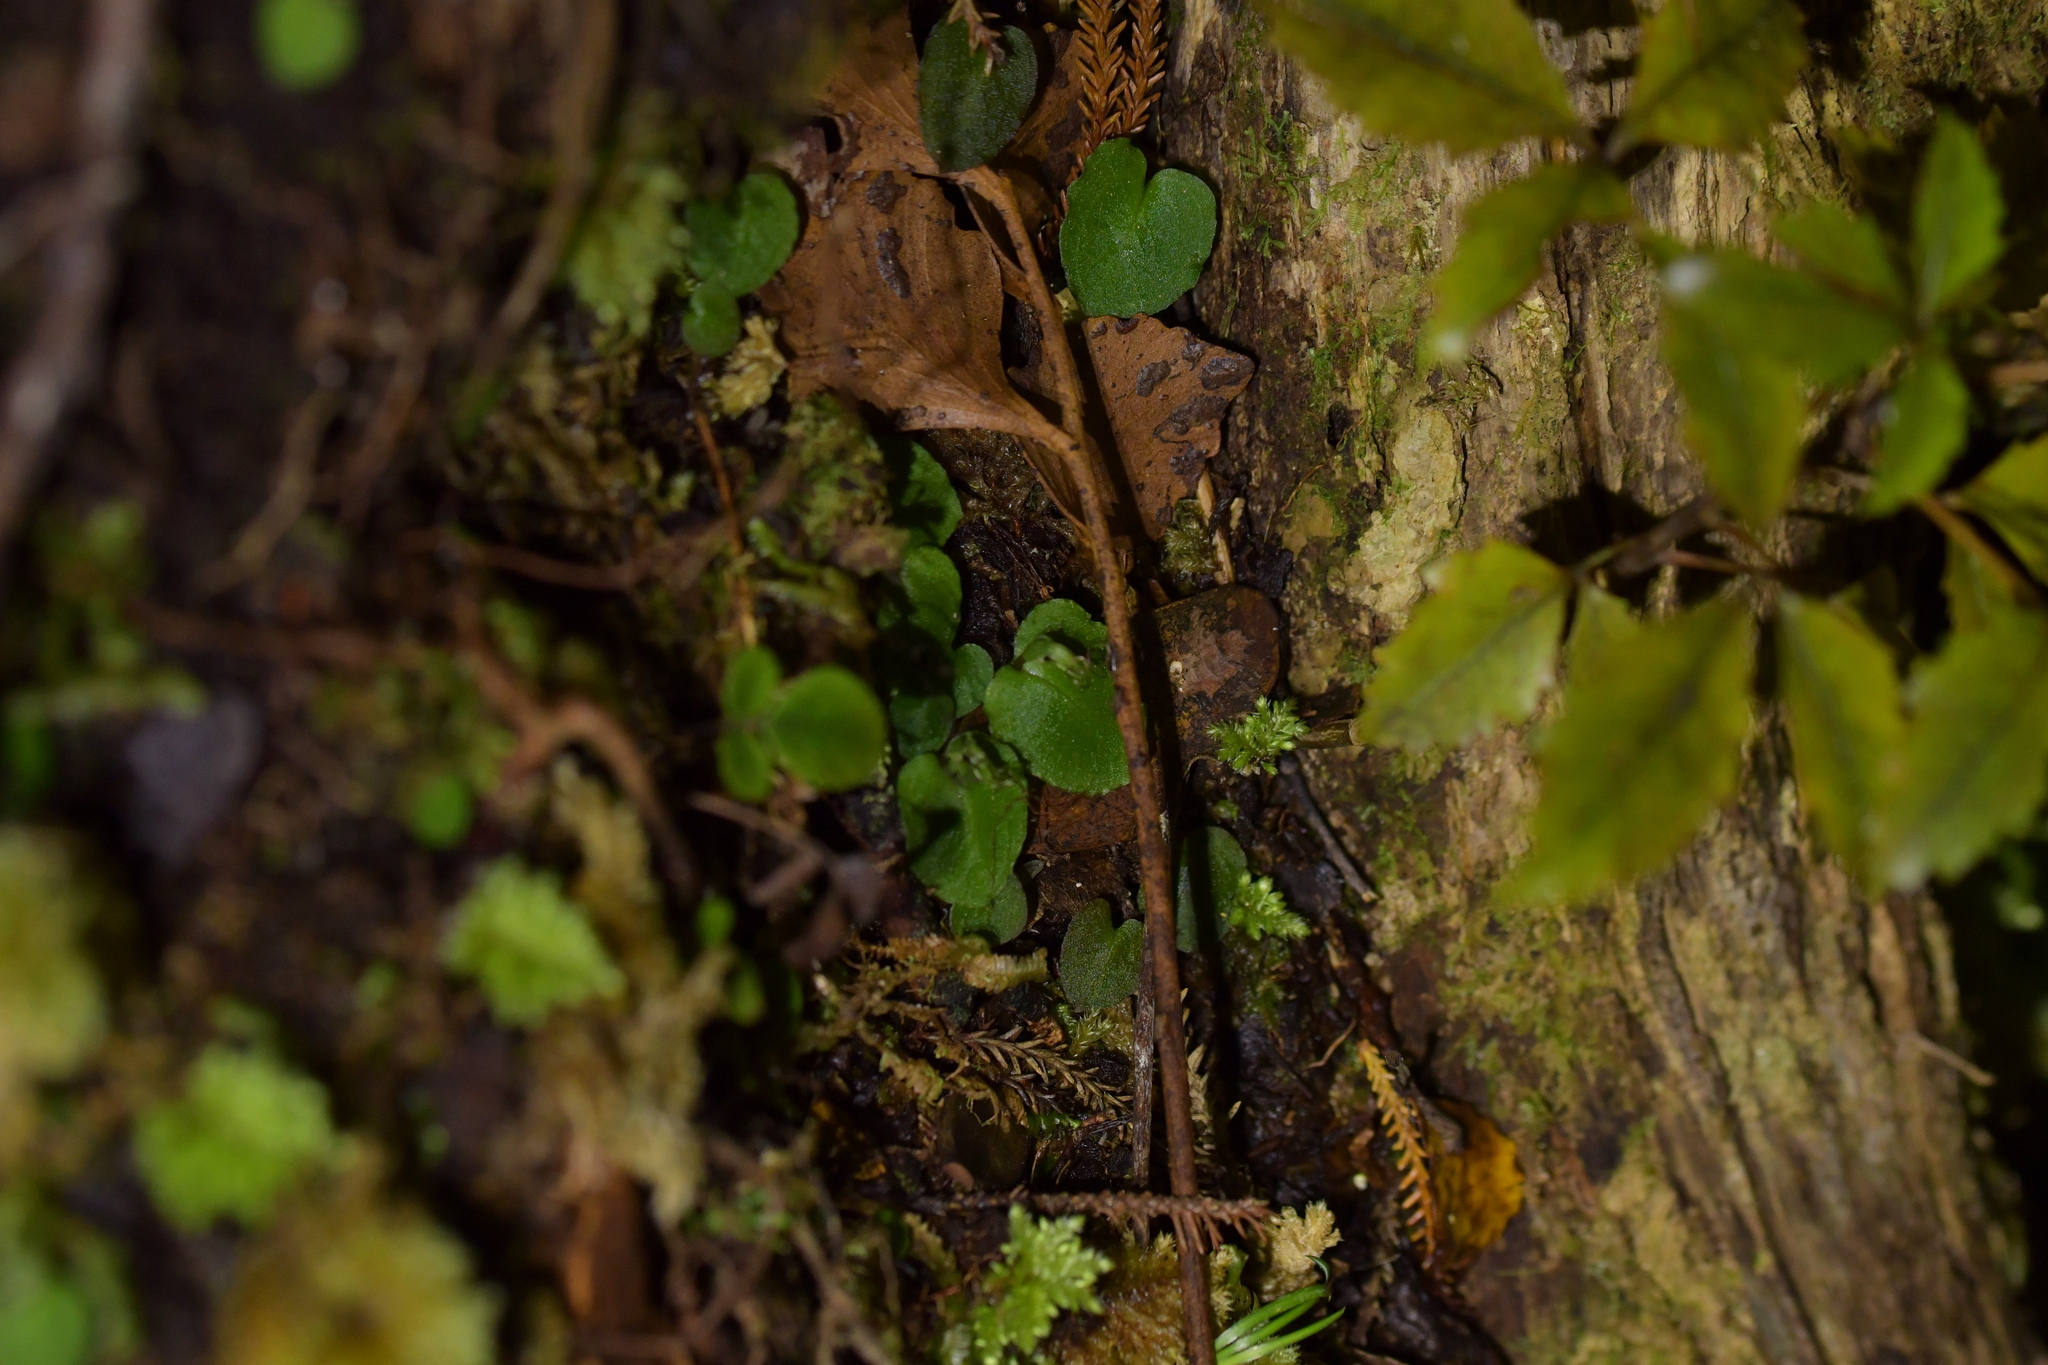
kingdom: Plantae
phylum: Tracheophyta
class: Liliopsida
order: Asparagales
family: Orchidaceae
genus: Corybas
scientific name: Corybas oblongus
